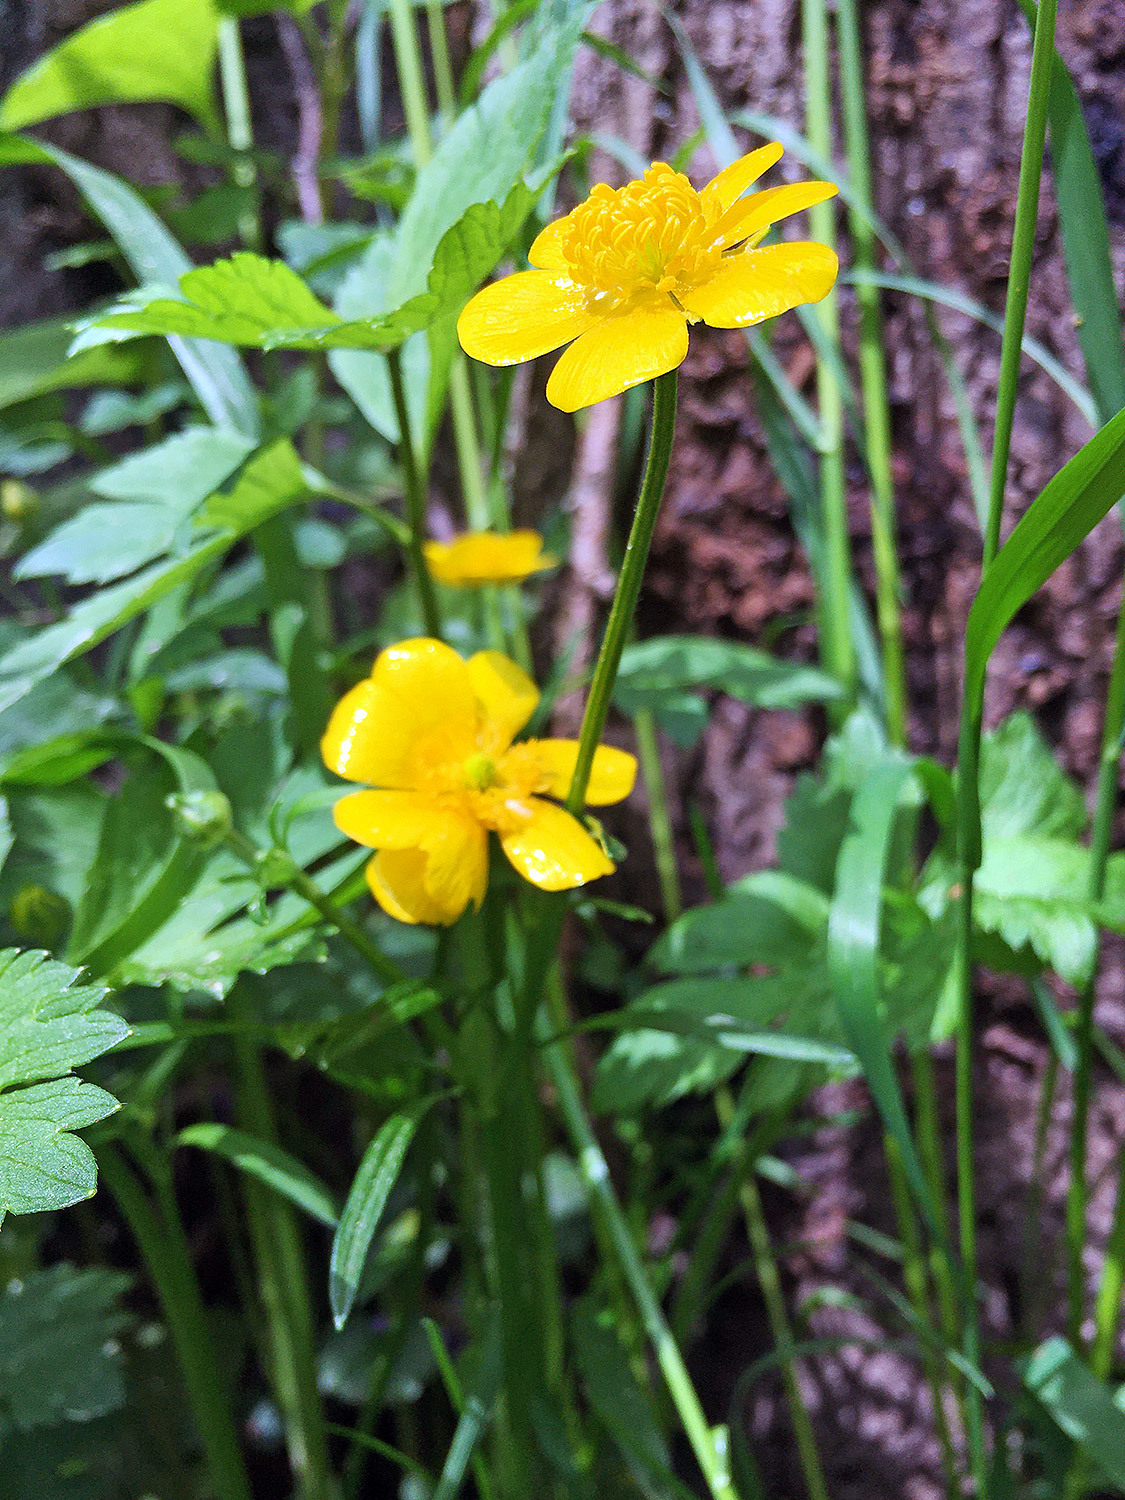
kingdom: Plantae
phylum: Tracheophyta
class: Magnoliopsida
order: Ranunculales
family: Ranunculaceae
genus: Ranunculus
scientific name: Ranunculus repens
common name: Creeping buttercup
